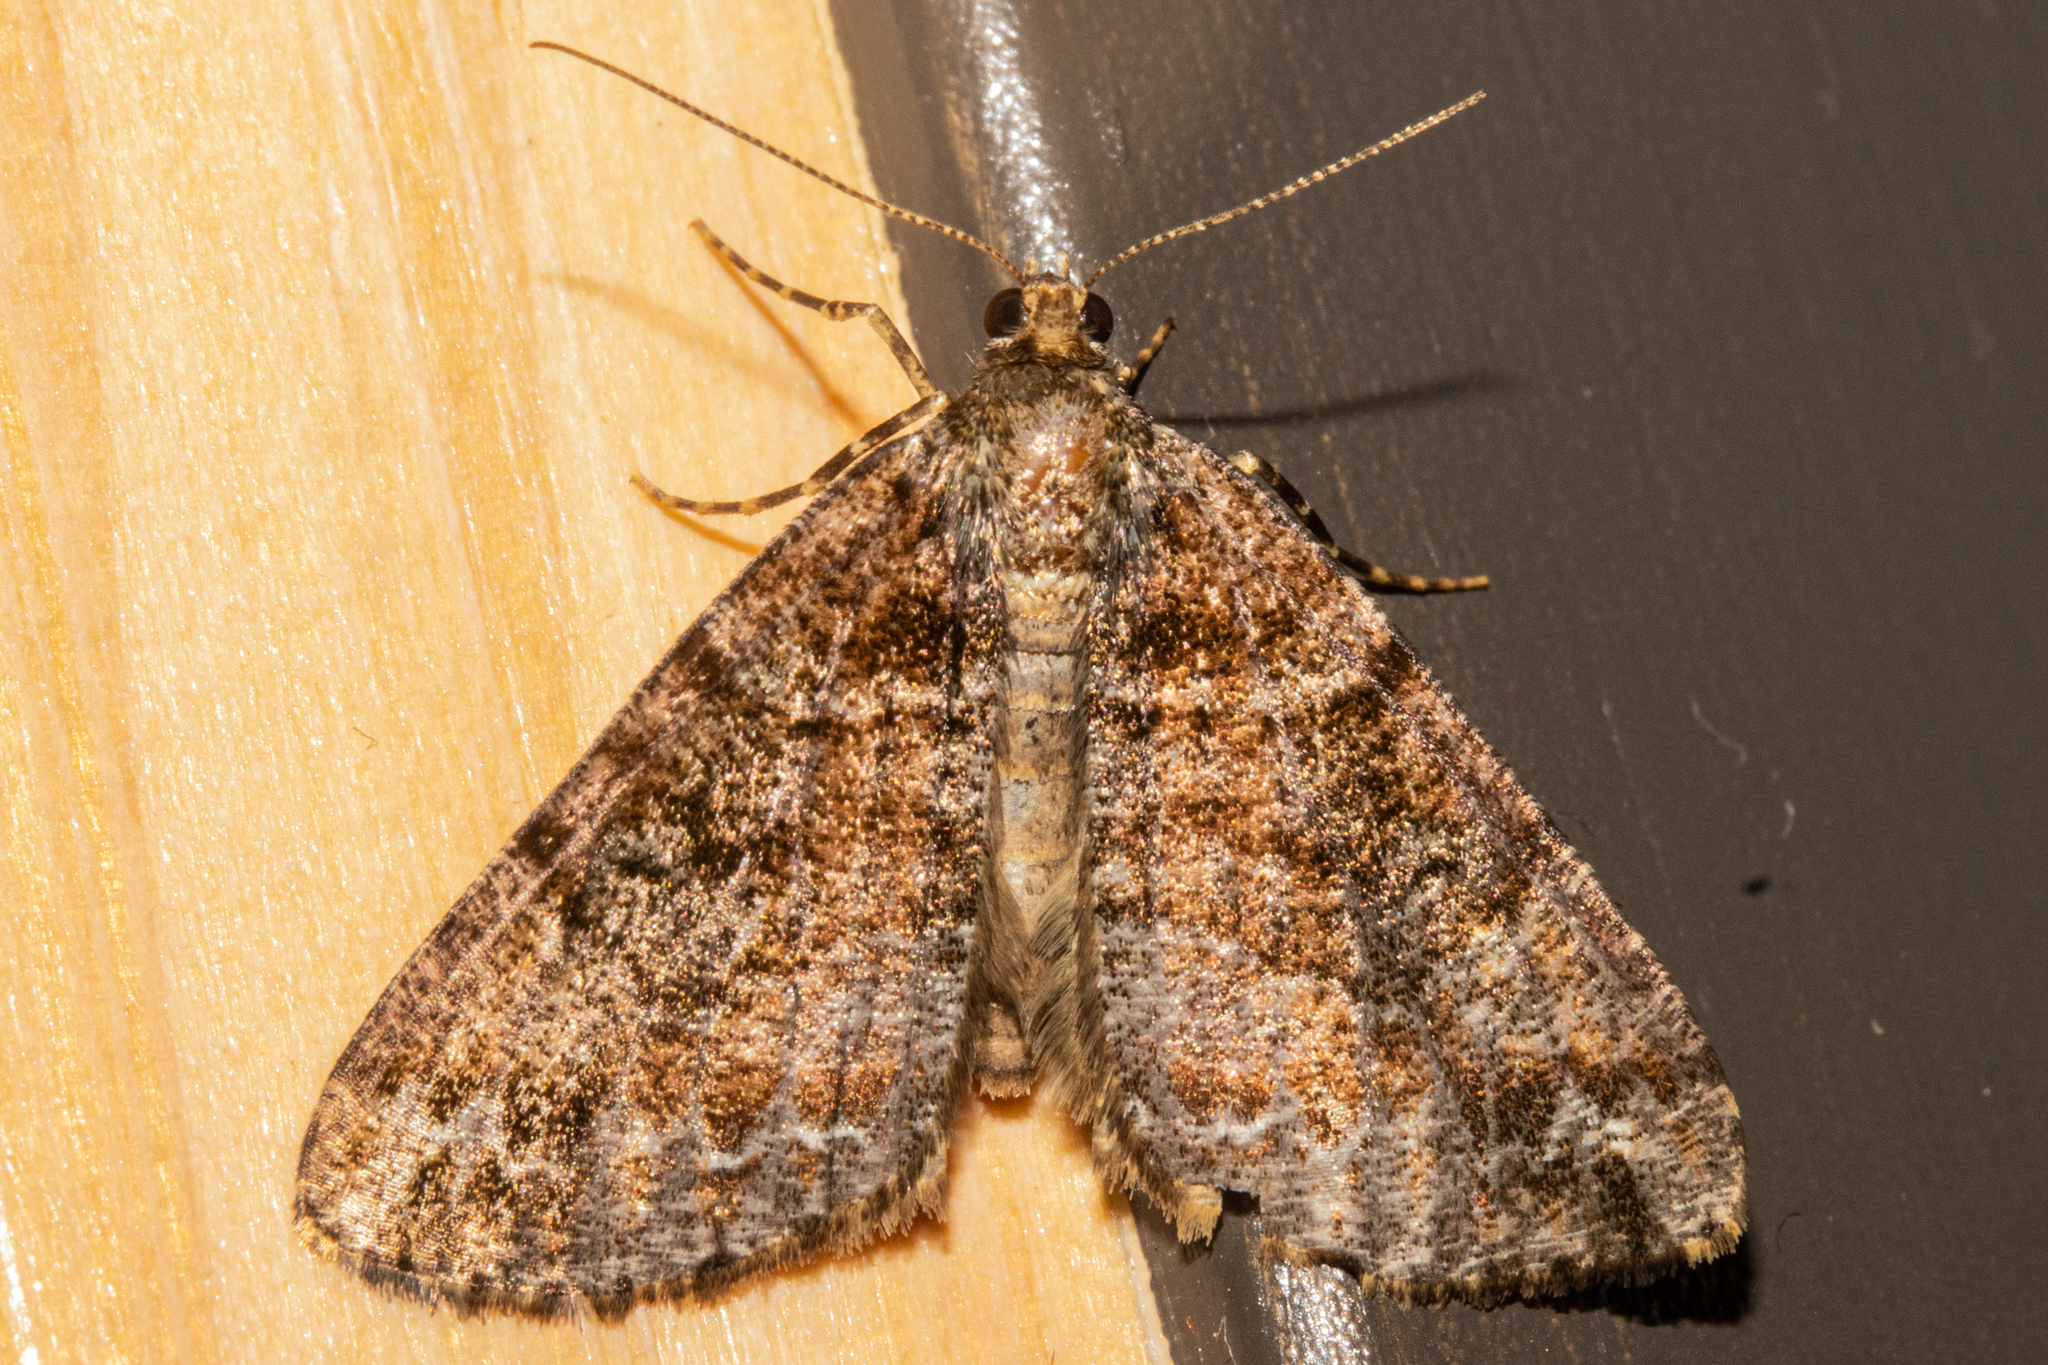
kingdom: Animalia
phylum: Arthropoda
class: Insecta
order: Lepidoptera
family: Geometridae
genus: Pseudocoremia
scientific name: Pseudocoremia productata
